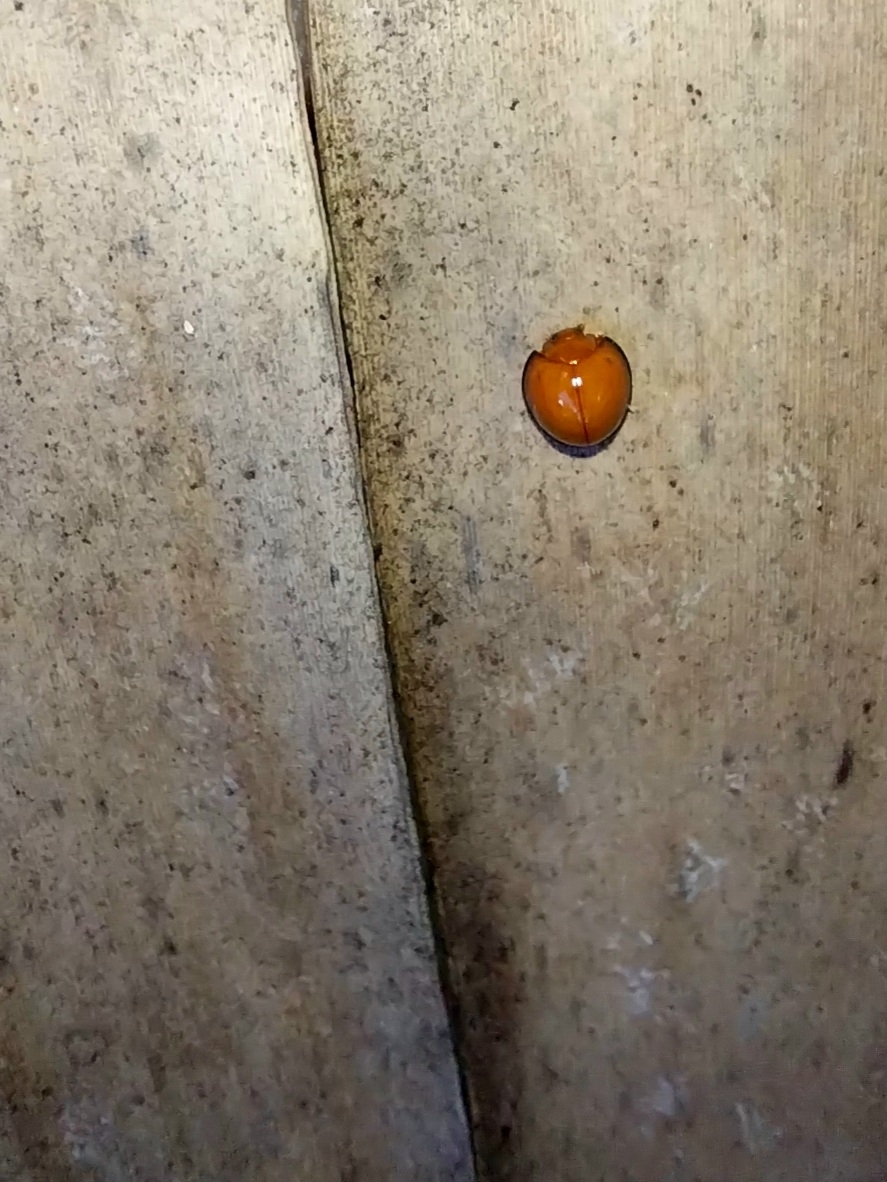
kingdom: Animalia
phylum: Arthropoda
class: Insecta
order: Coleoptera
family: Coccinellidae
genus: Chilocorus
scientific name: Chilocorus circumdatus
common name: Lady beetle
